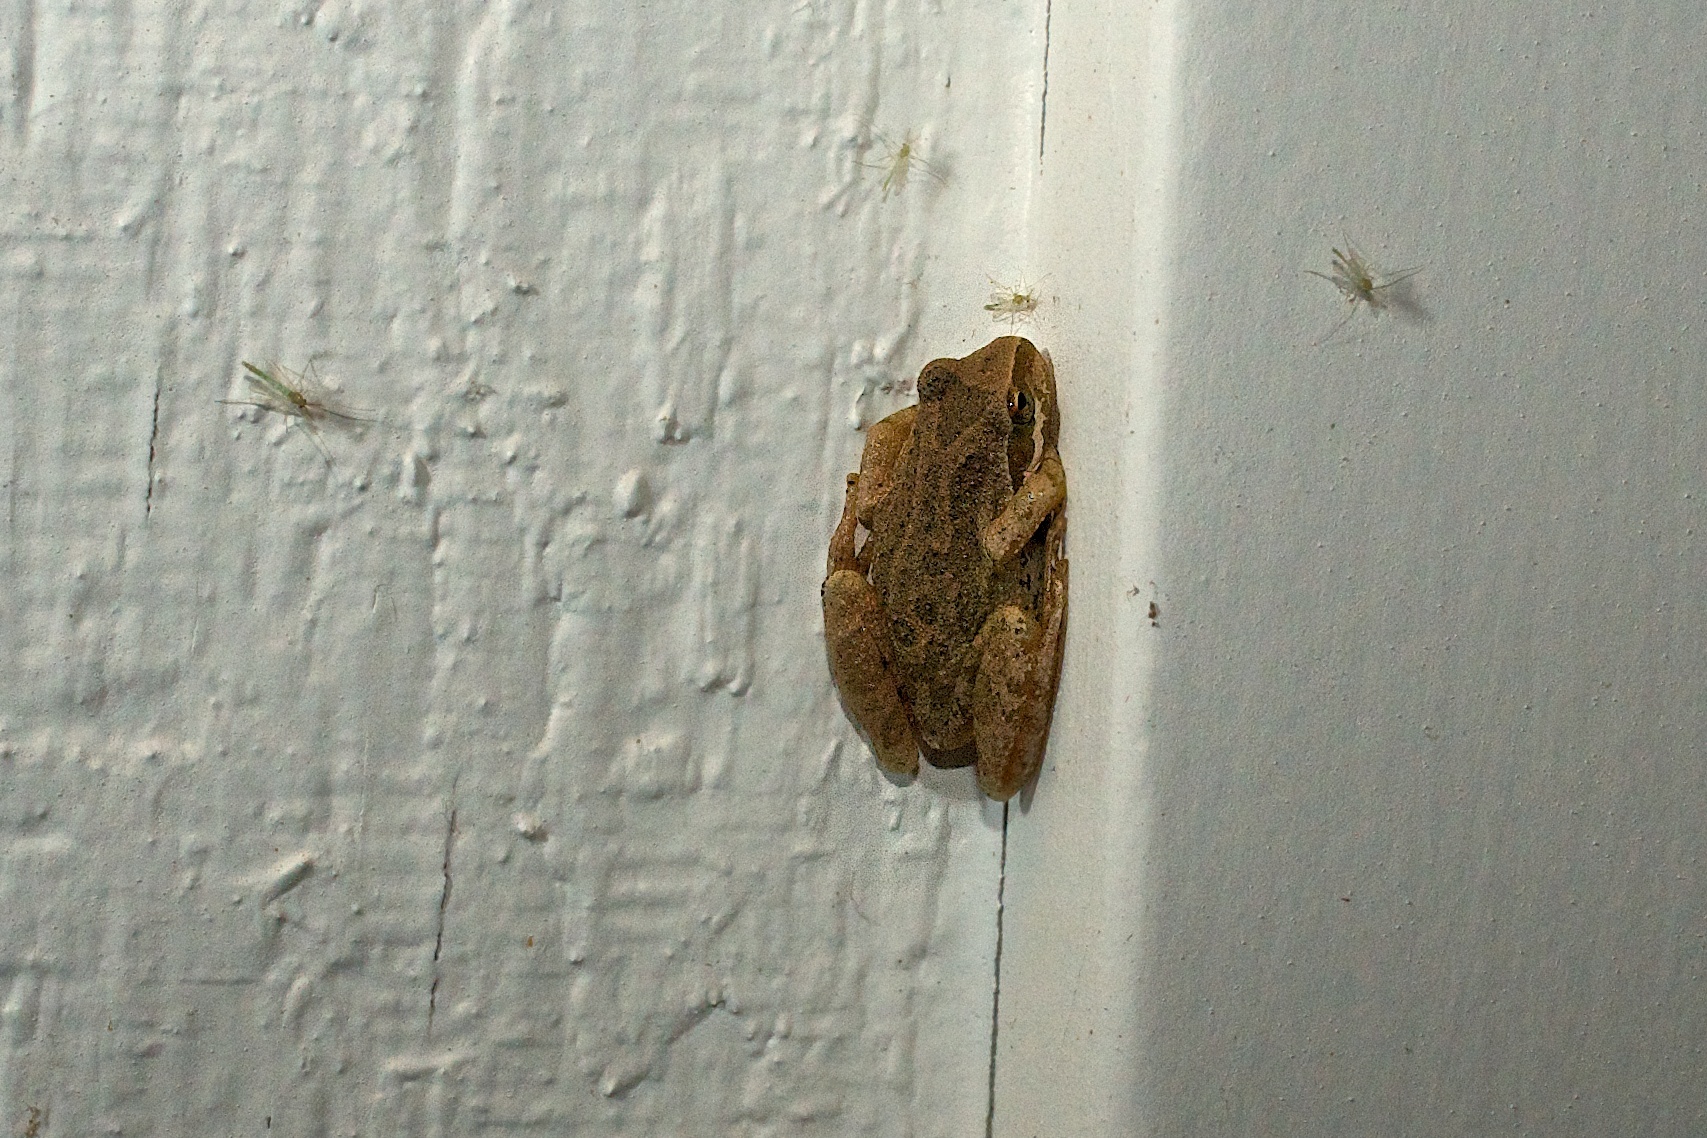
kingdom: Animalia
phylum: Chordata
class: Amphibia
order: Anura
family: Hylidae
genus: Pseudacris
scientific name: Pseudacris regilla
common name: Pacific chorus frog
